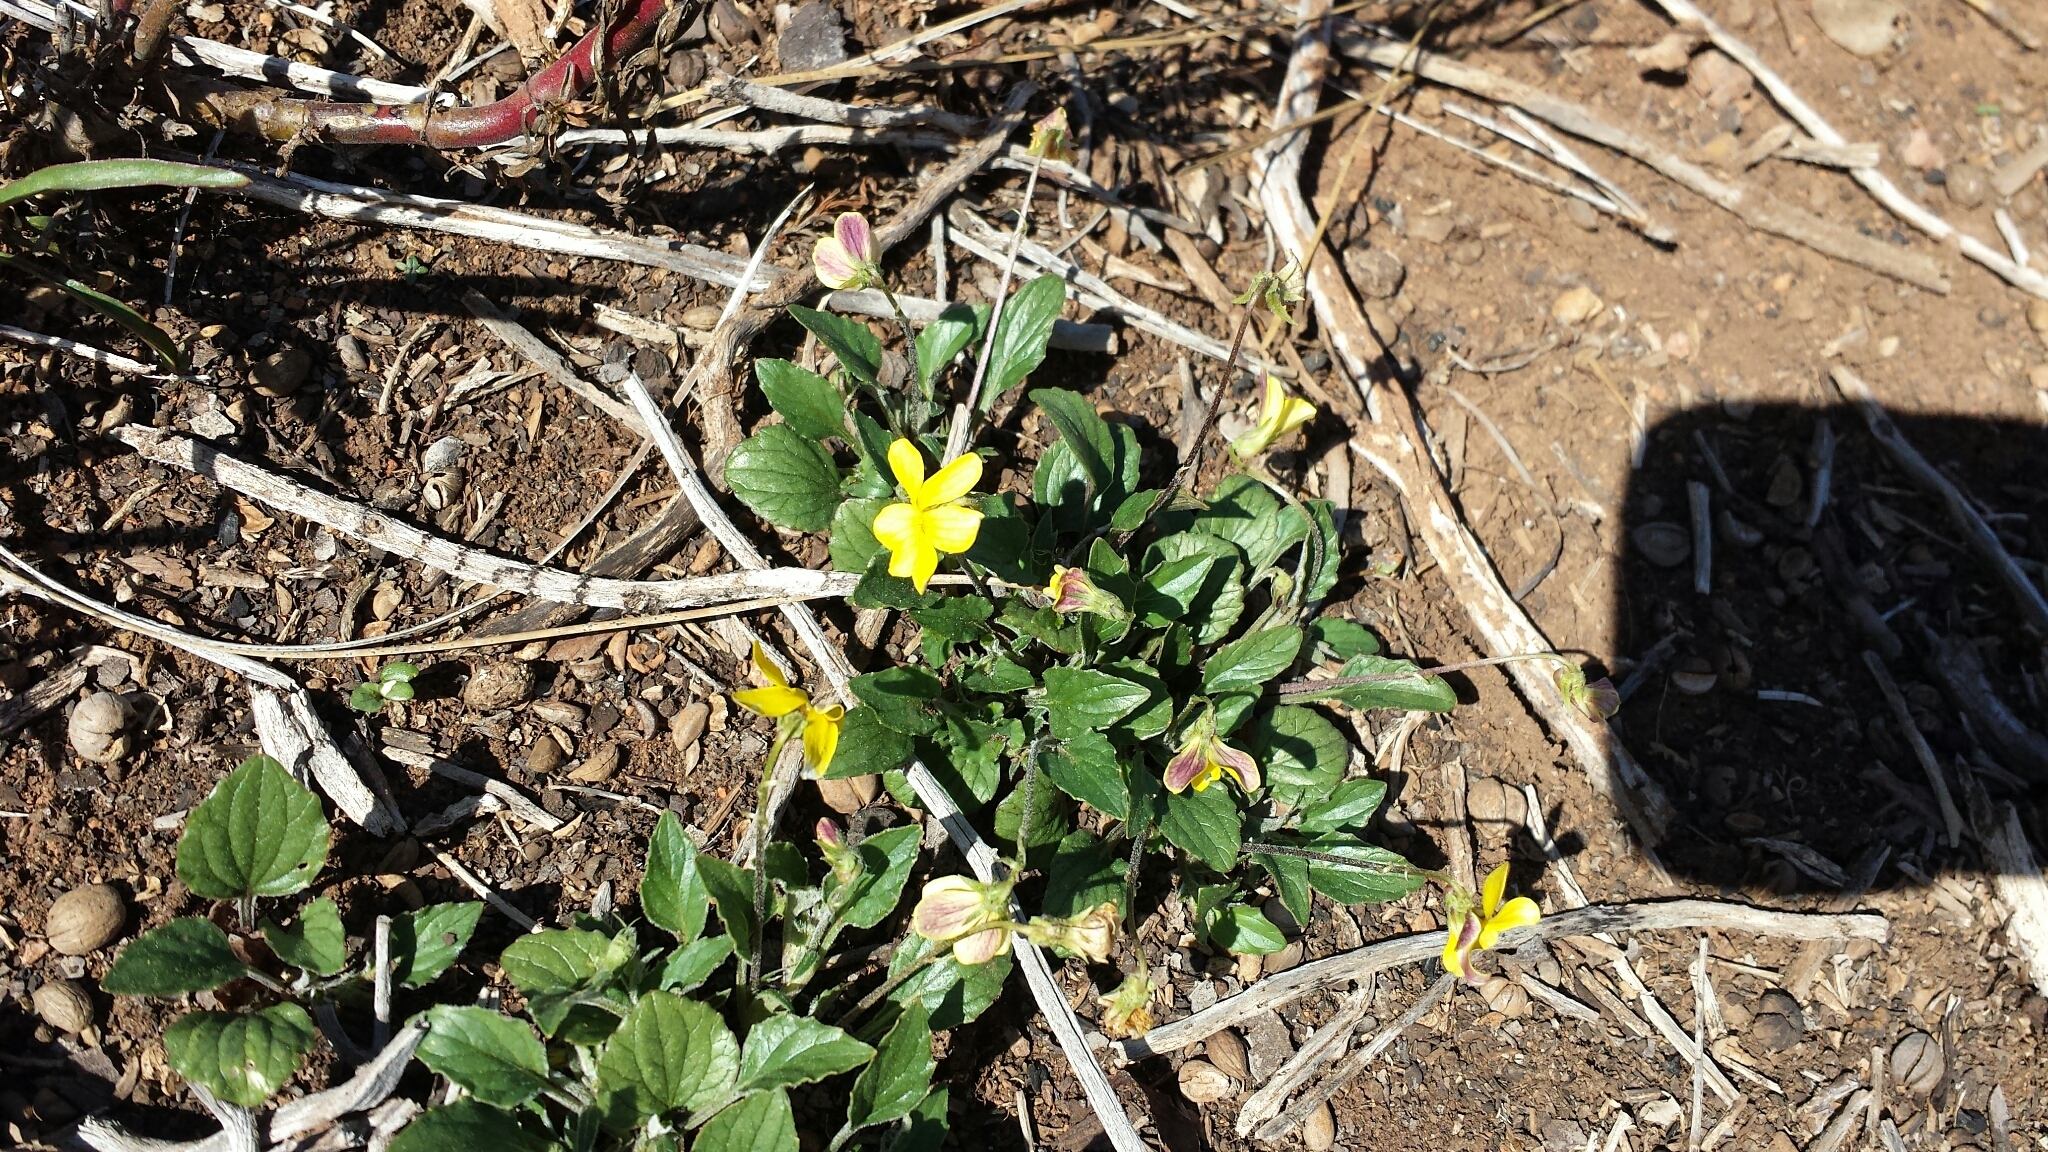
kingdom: Plantae
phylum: Tracheophyta
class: Magnoliopsida
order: Malpighiales
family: Violaceae
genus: Viola
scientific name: Viola purpurea
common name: Pine violet
